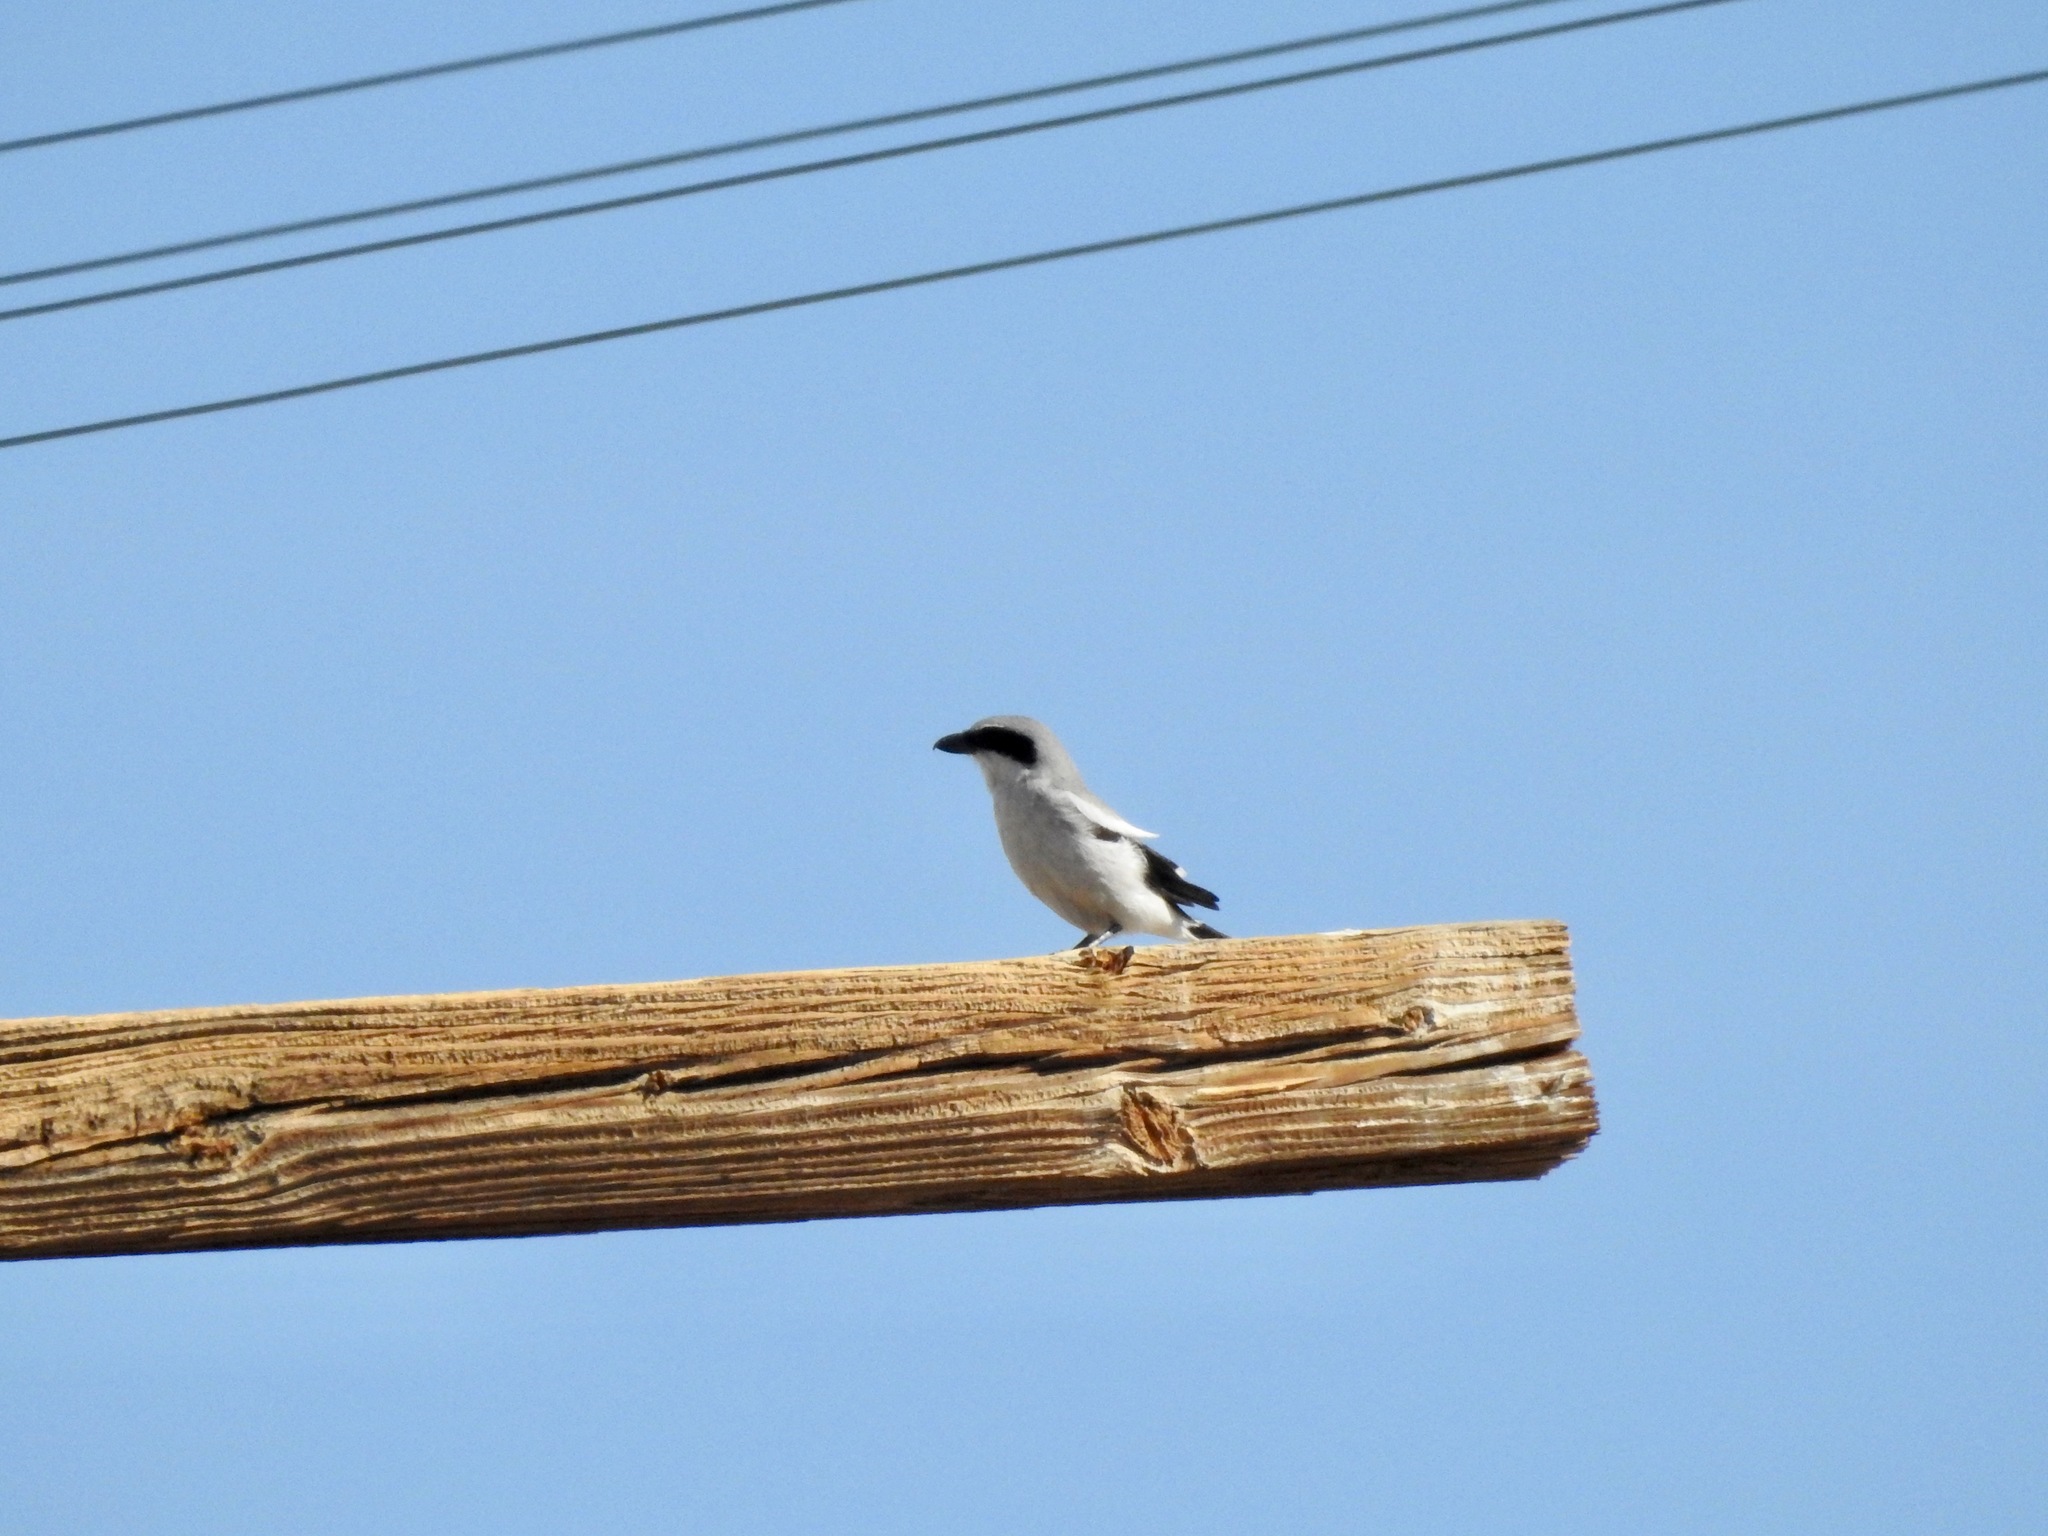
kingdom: Animalia
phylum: Chordata
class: Aves
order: Passeriformes
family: Laniidae
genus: Lanius
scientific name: Lanius ludovicianus
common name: Loggerhead shrike
